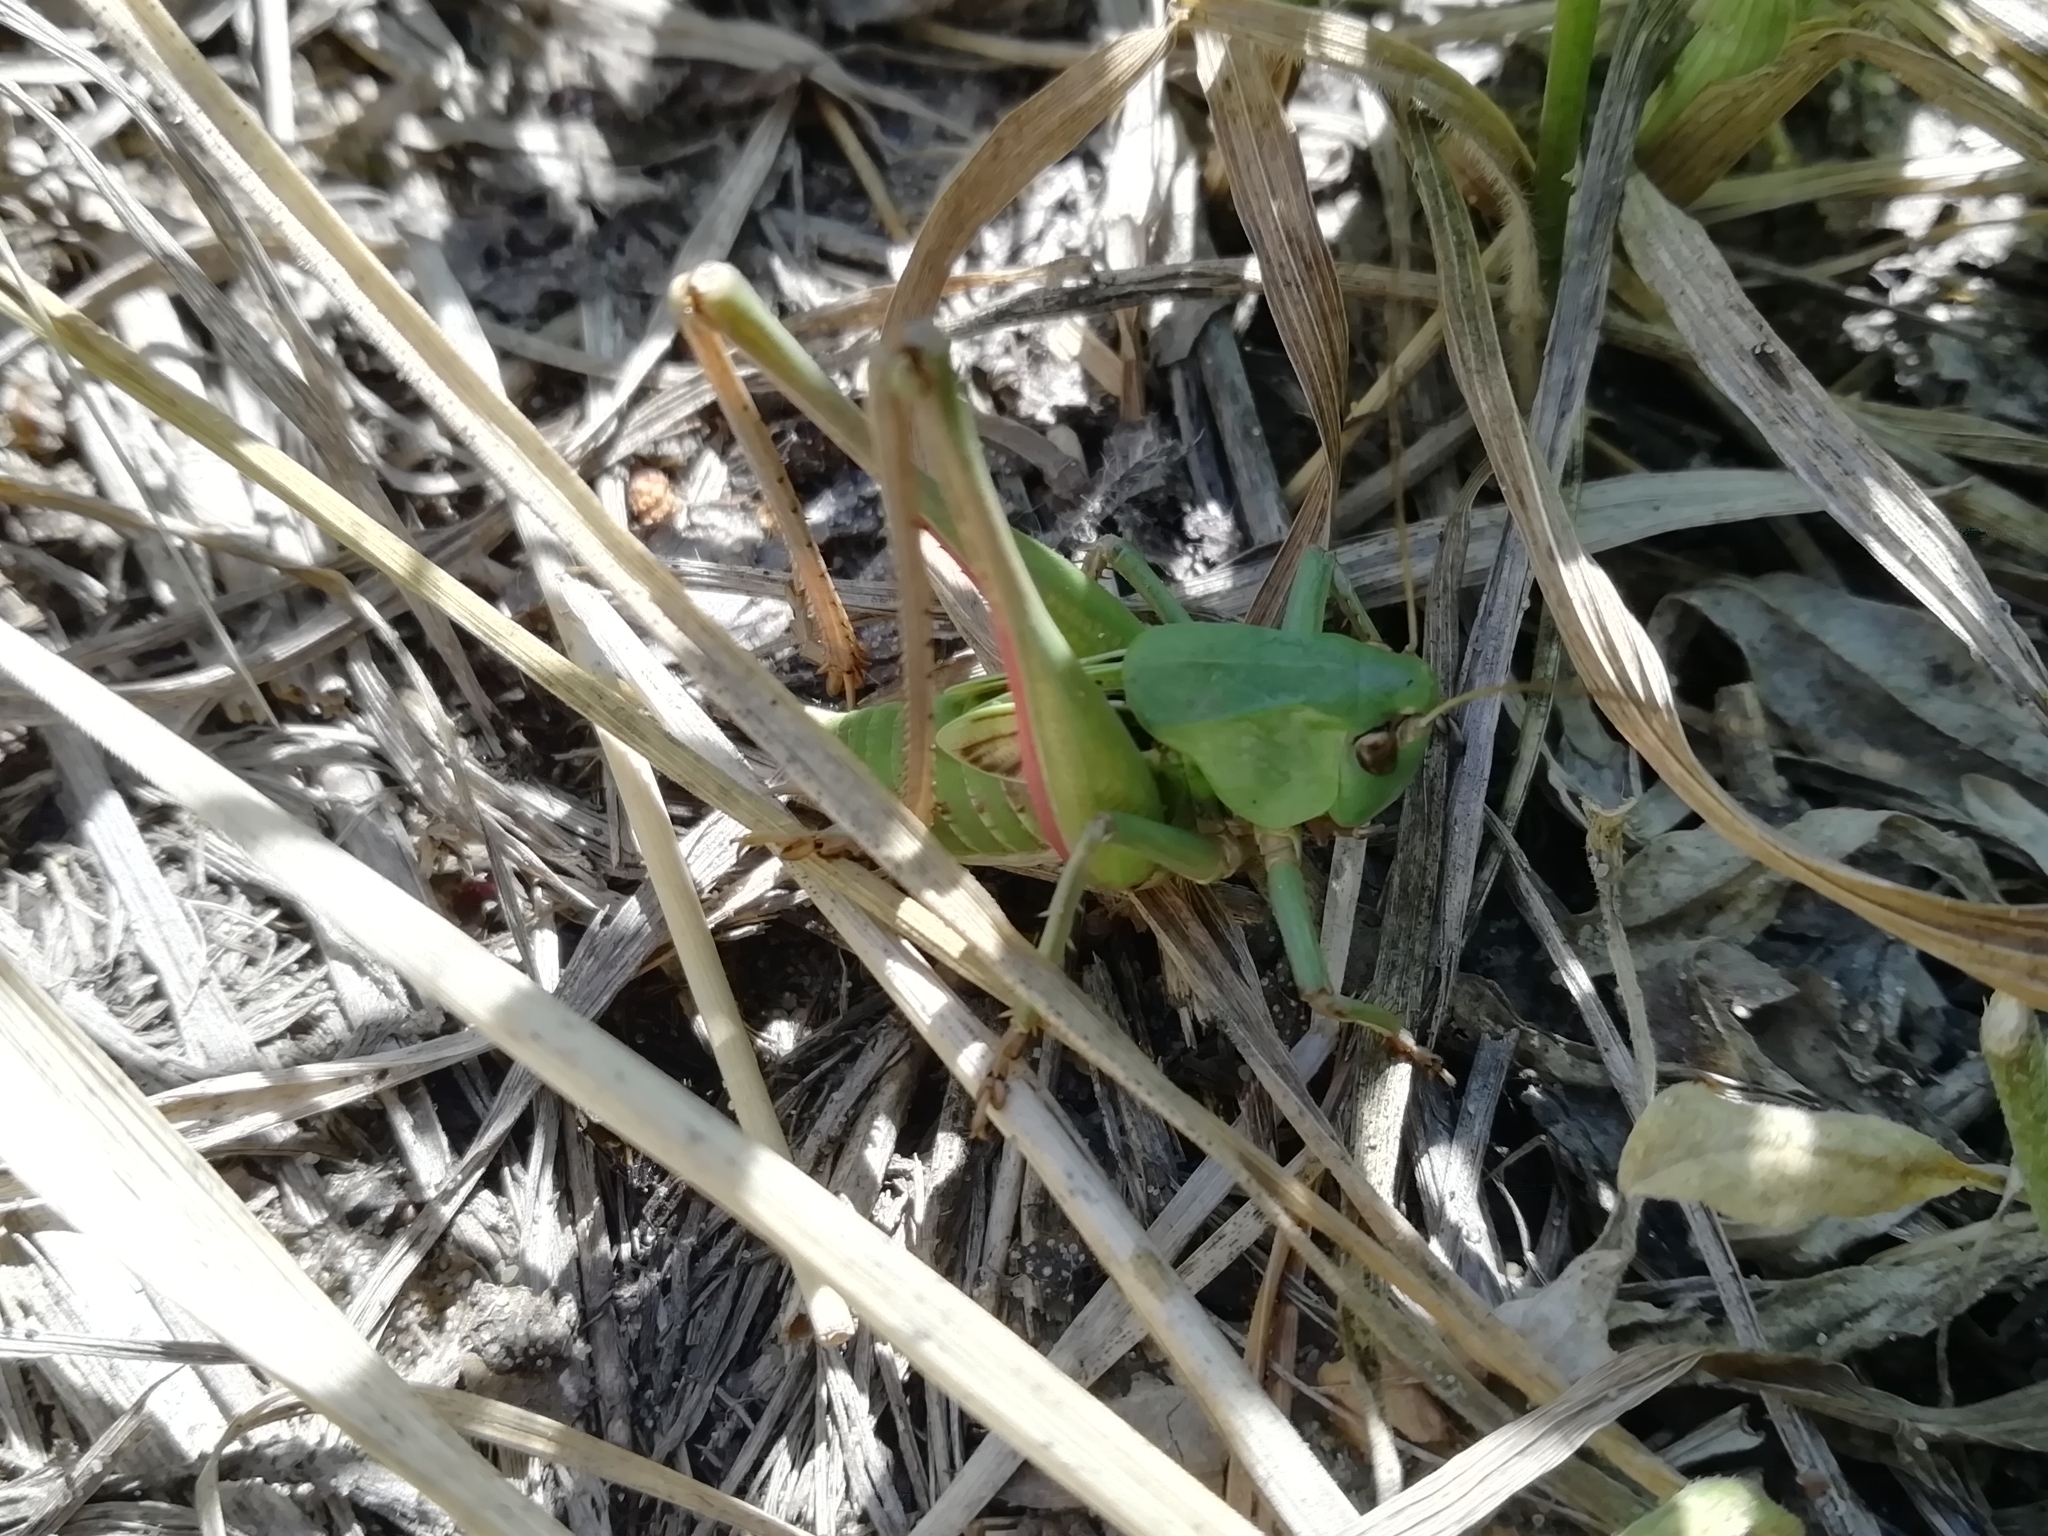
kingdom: Animalia
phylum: Arthropoda
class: Insecta
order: Orthoptera
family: Tettigoniidae
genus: Decticus
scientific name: Decticus verrucivorus
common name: Wart-biter
